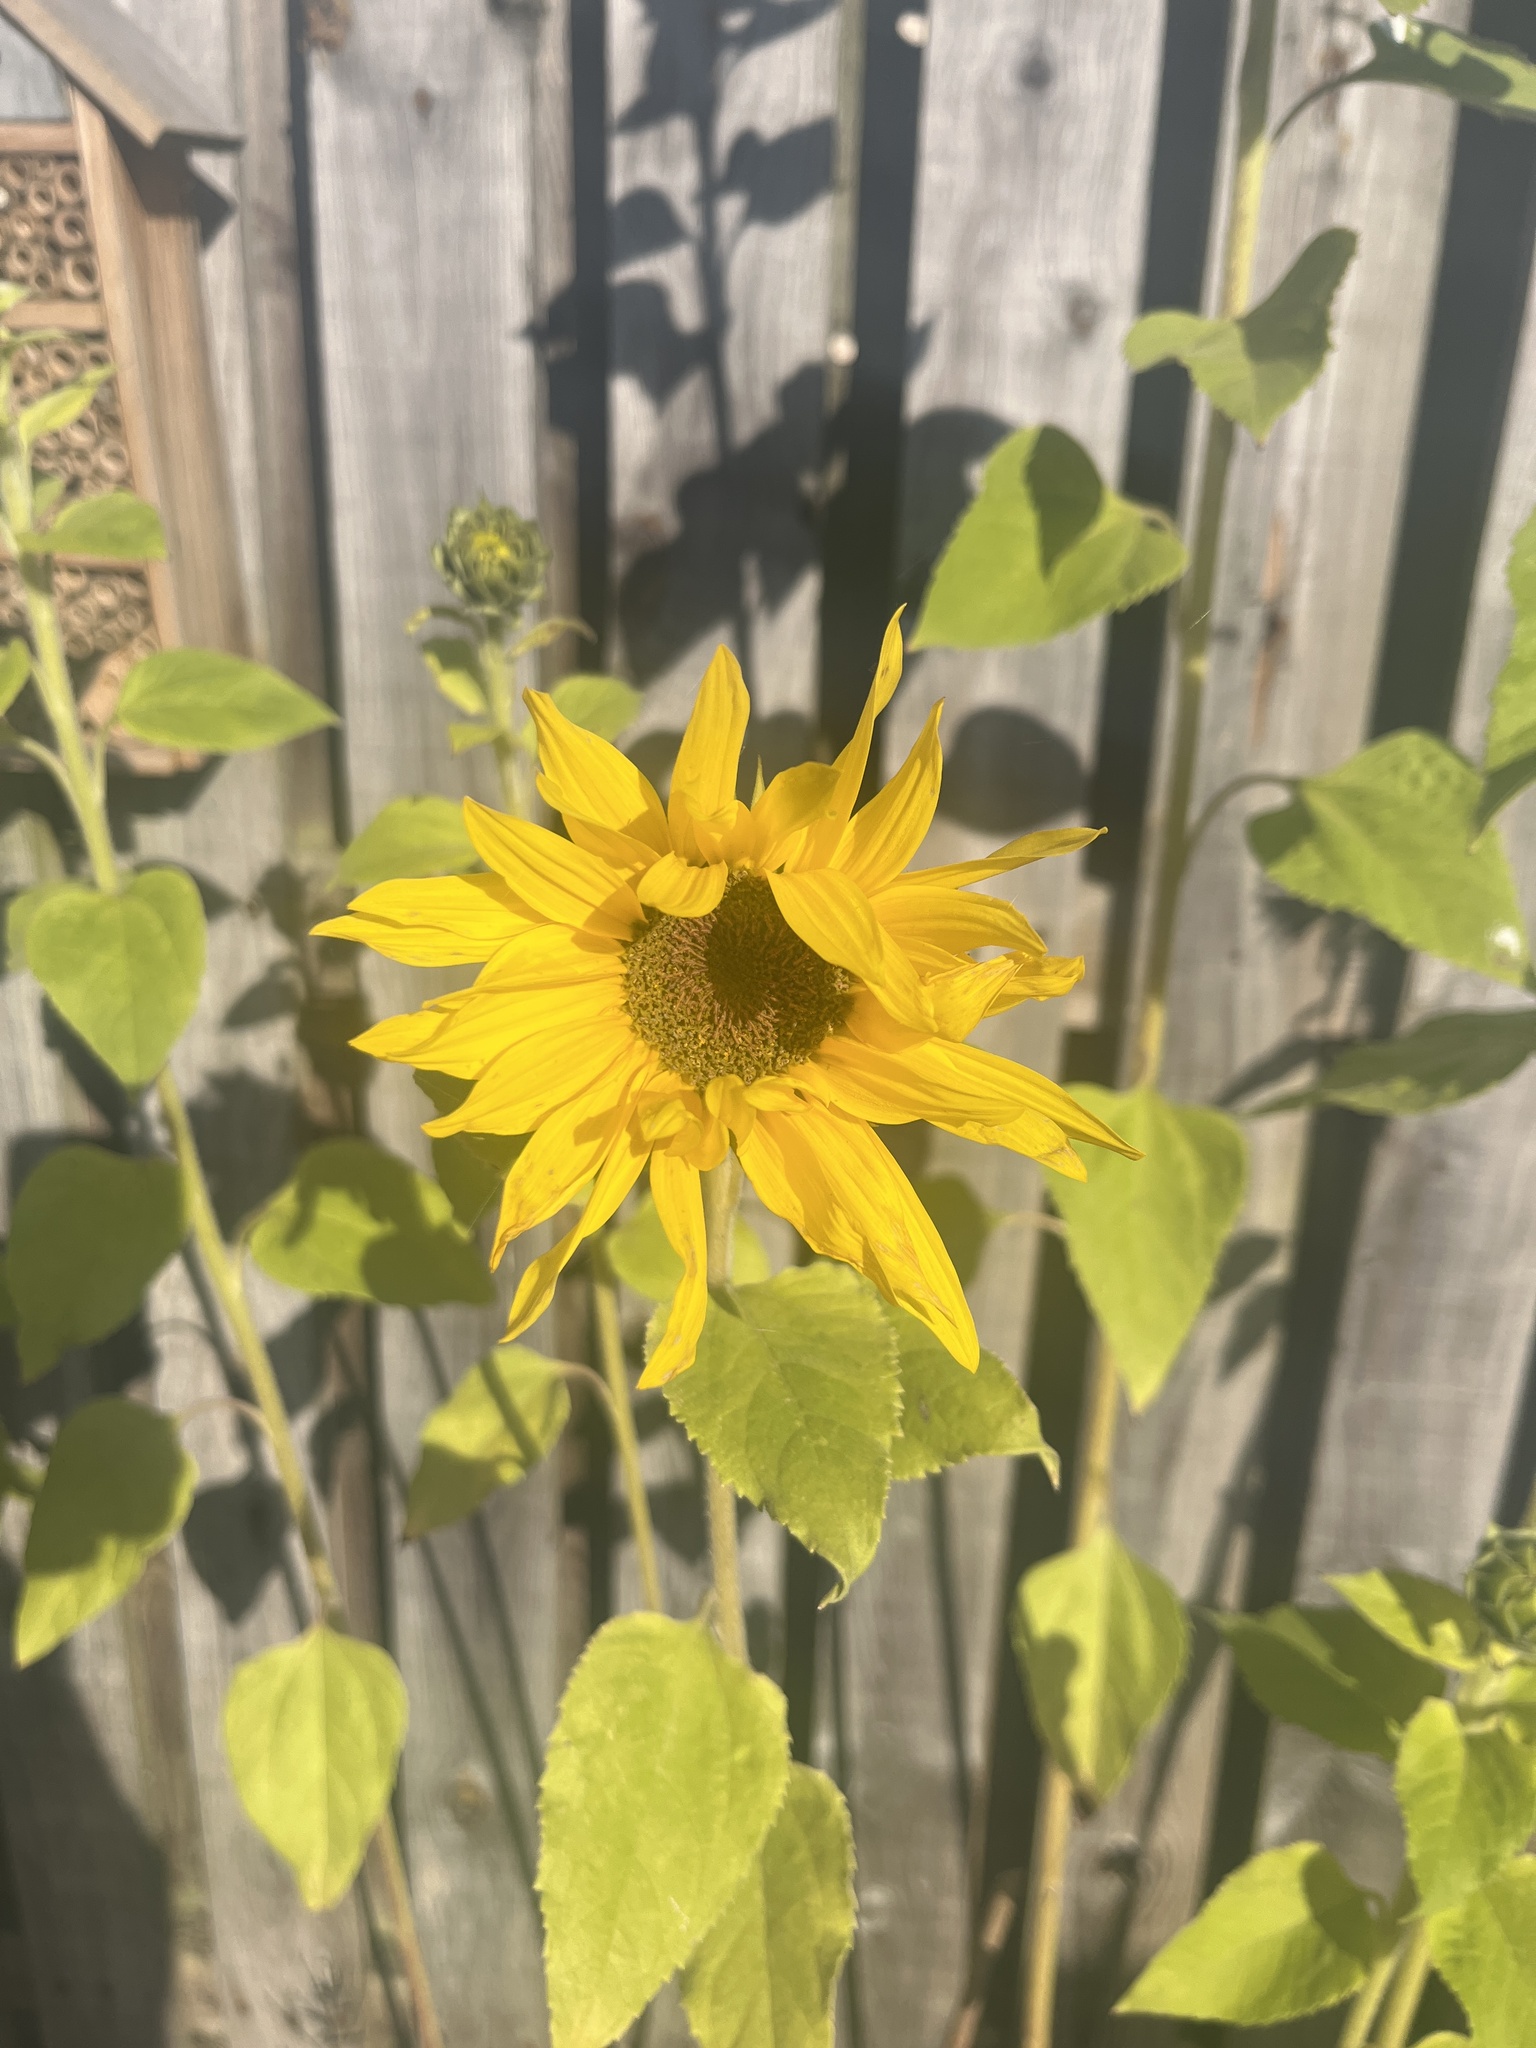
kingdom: Plantae
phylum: Tracheophyta
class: Magnoliopsida
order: Asterales
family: Asteraceae
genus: Helianthus
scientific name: Helianthus annuus
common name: Sunflower
